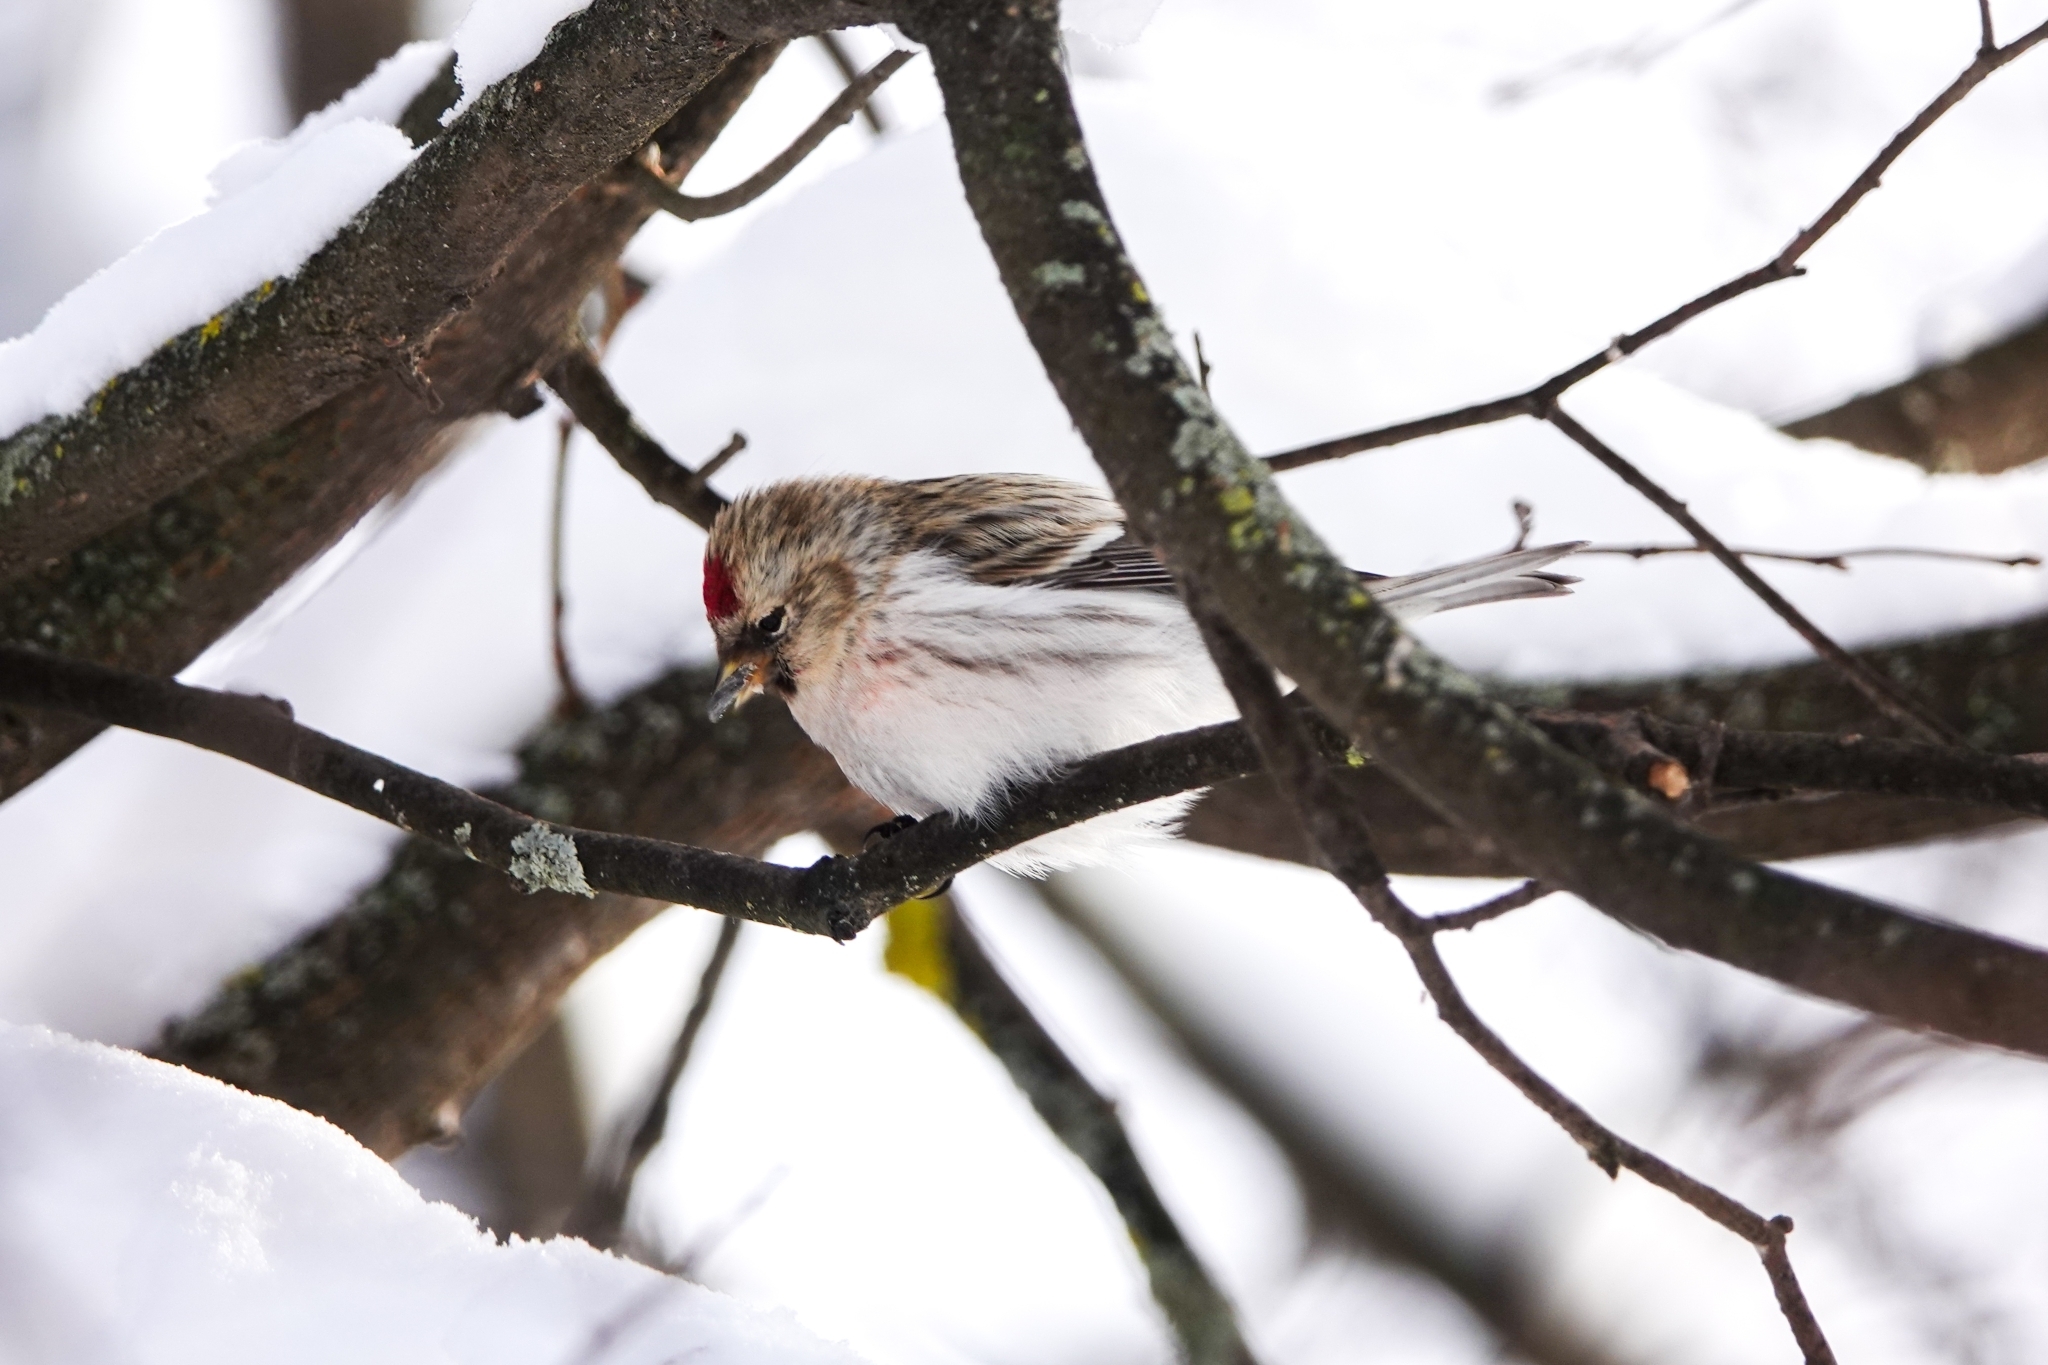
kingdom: Animalia
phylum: Chordata
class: Aves
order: Passeriformes
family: Fringillidae
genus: Acanthis
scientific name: Acanthis hornemanni
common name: Arctic redpoll
